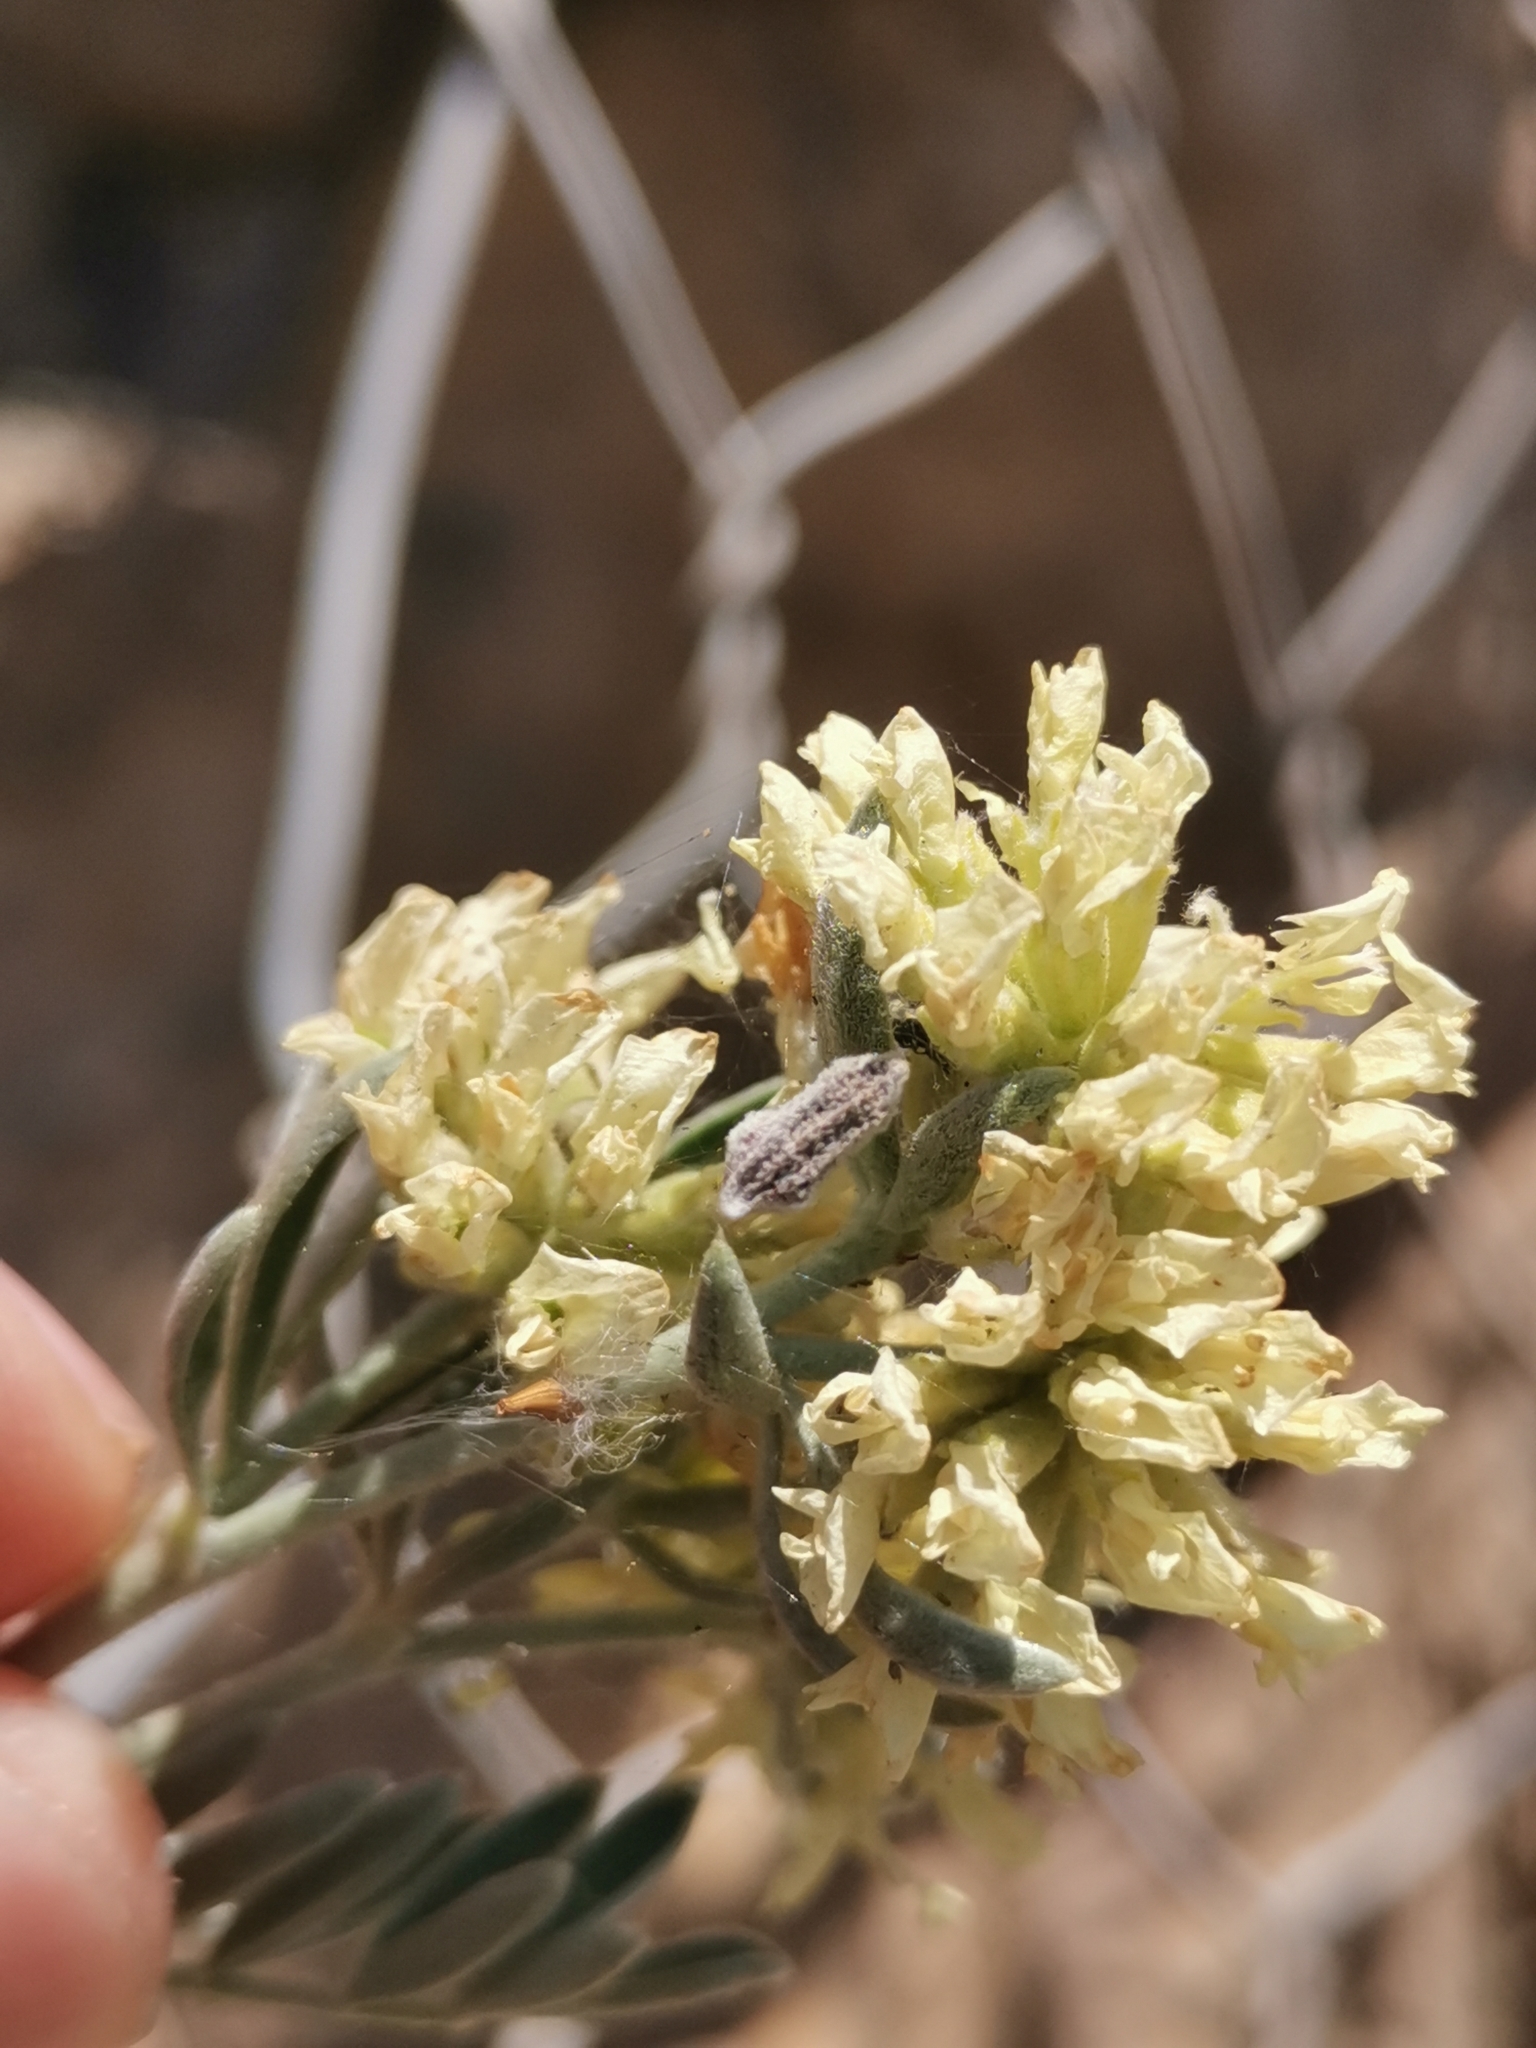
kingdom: Plantae
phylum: Tracheophyta
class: Magnoliopsida
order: Fabales
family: Fabaceae
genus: Anthyllis
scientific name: Anthyllis barba-jovis
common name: Jupiter's-beard
